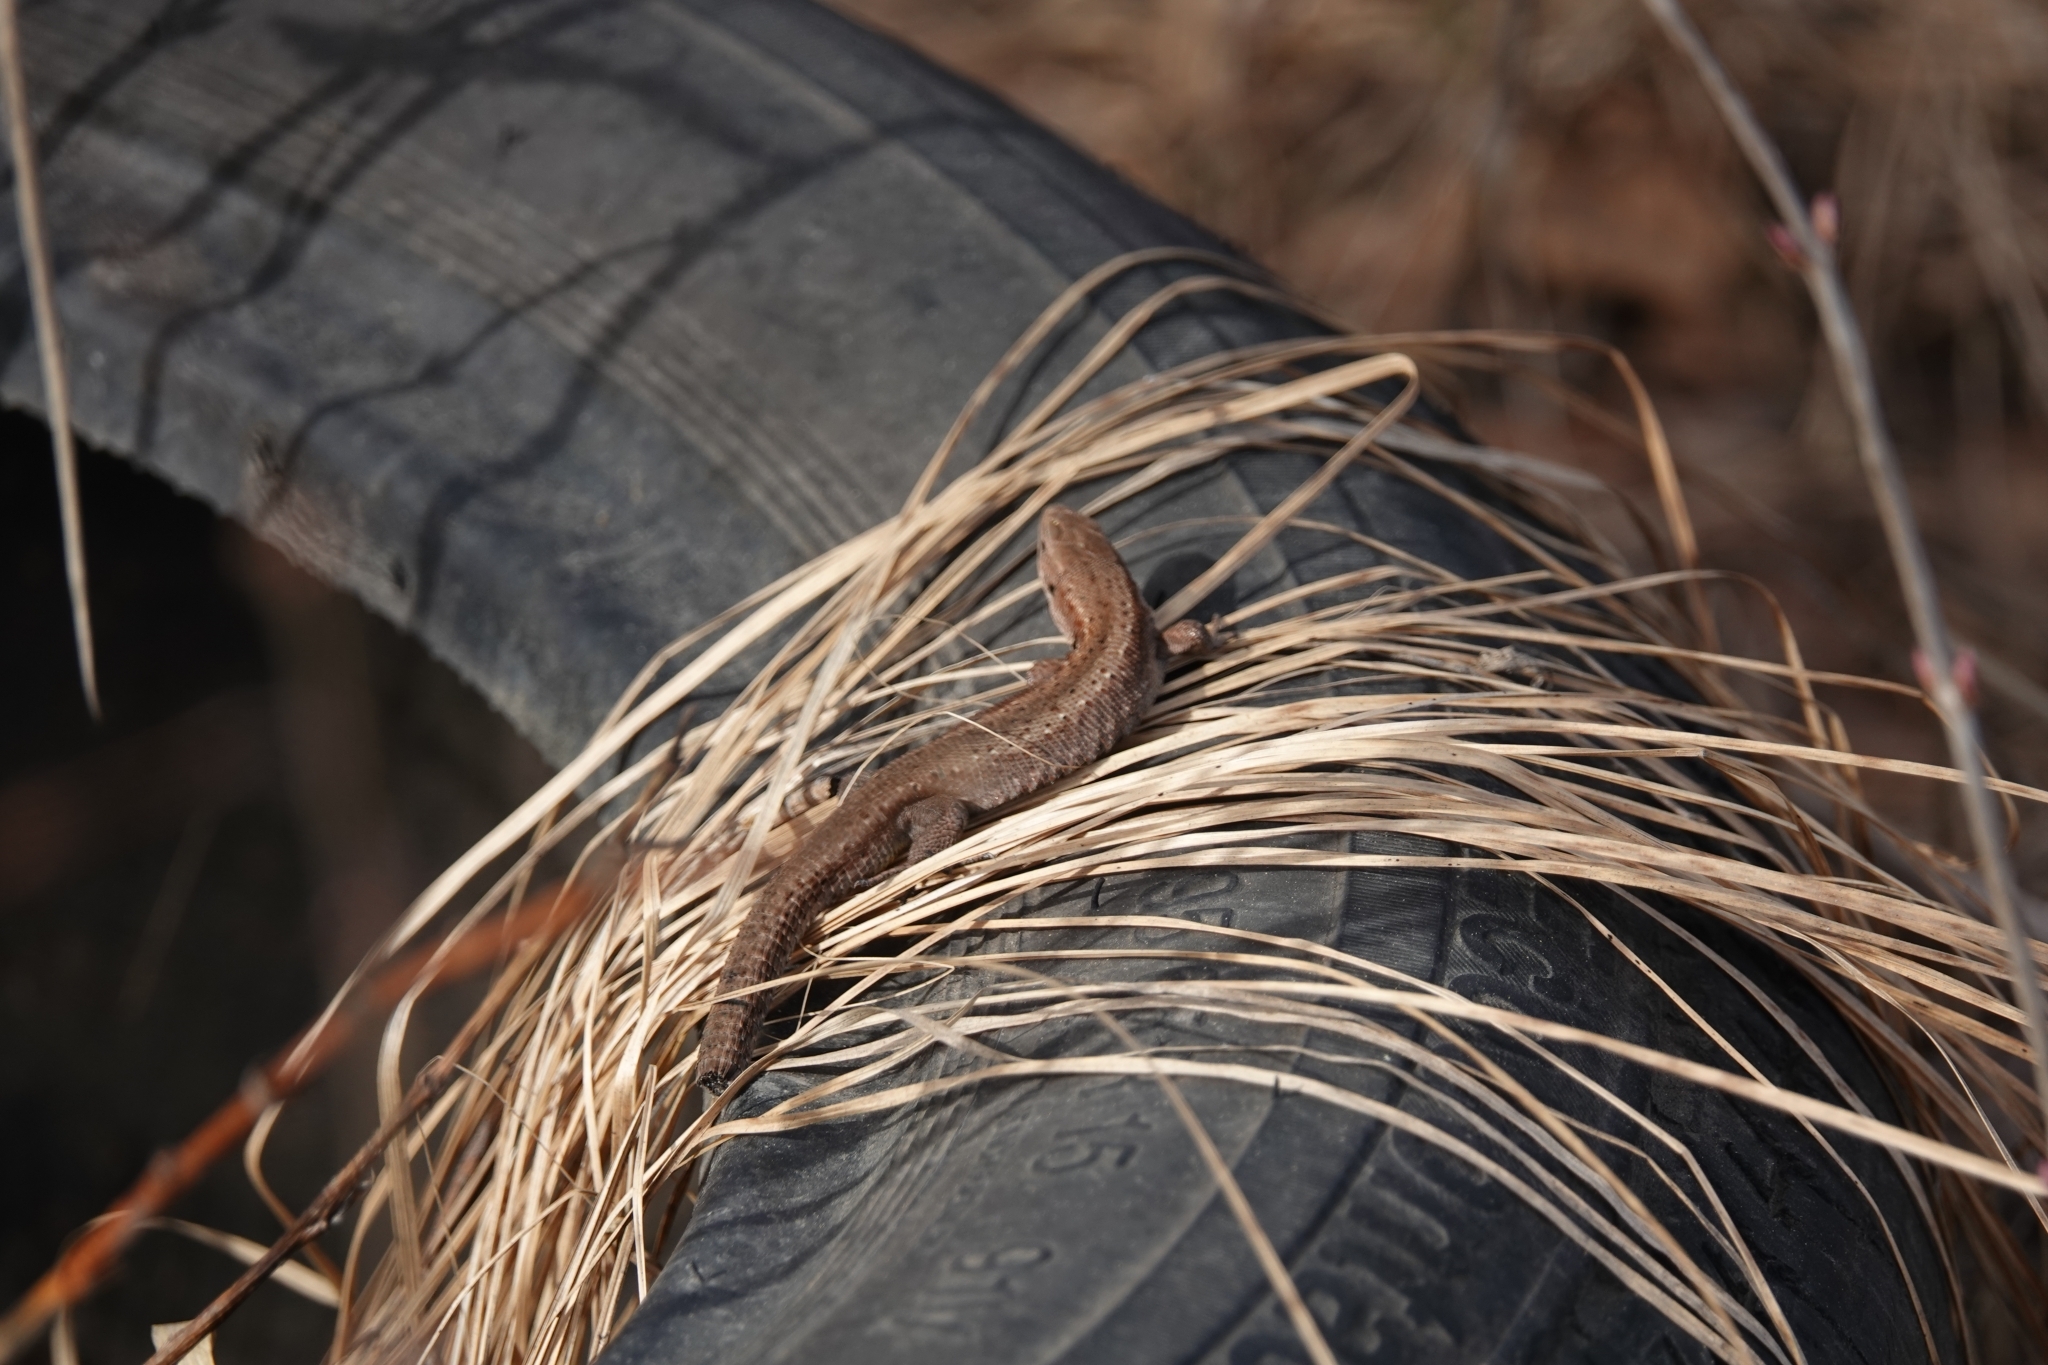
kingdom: Animalia
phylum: Chordata
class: Squamata
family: Lacertidae
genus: Zootoca
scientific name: Zootoca vivipara
